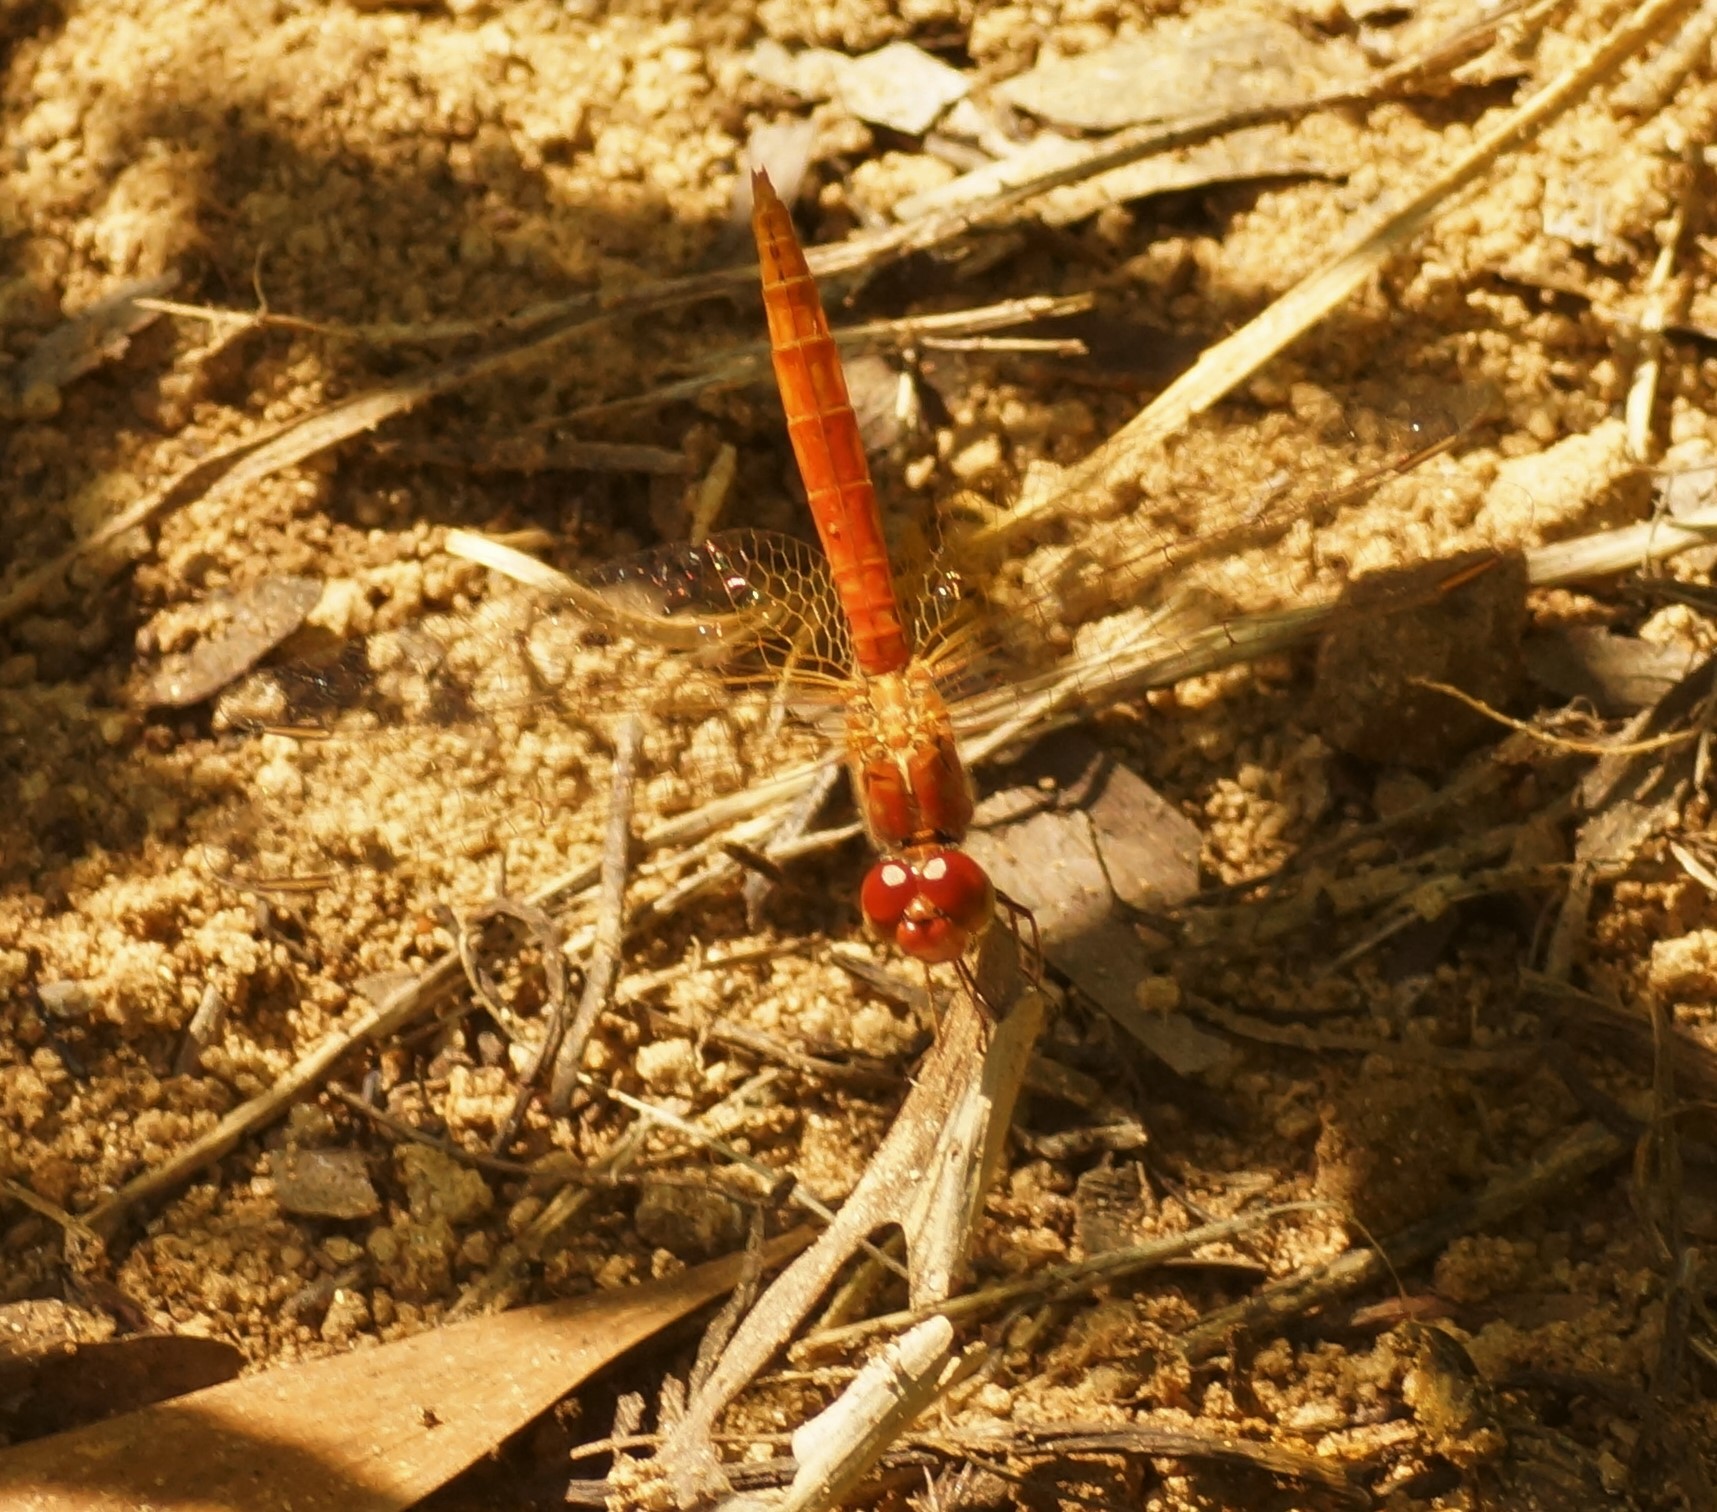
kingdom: Animalia
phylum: Arthropoda
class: Insecta
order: Odonata
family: Libellulidae
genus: Diplacodes
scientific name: Diplacodes haematodes
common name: Scarlet percher
